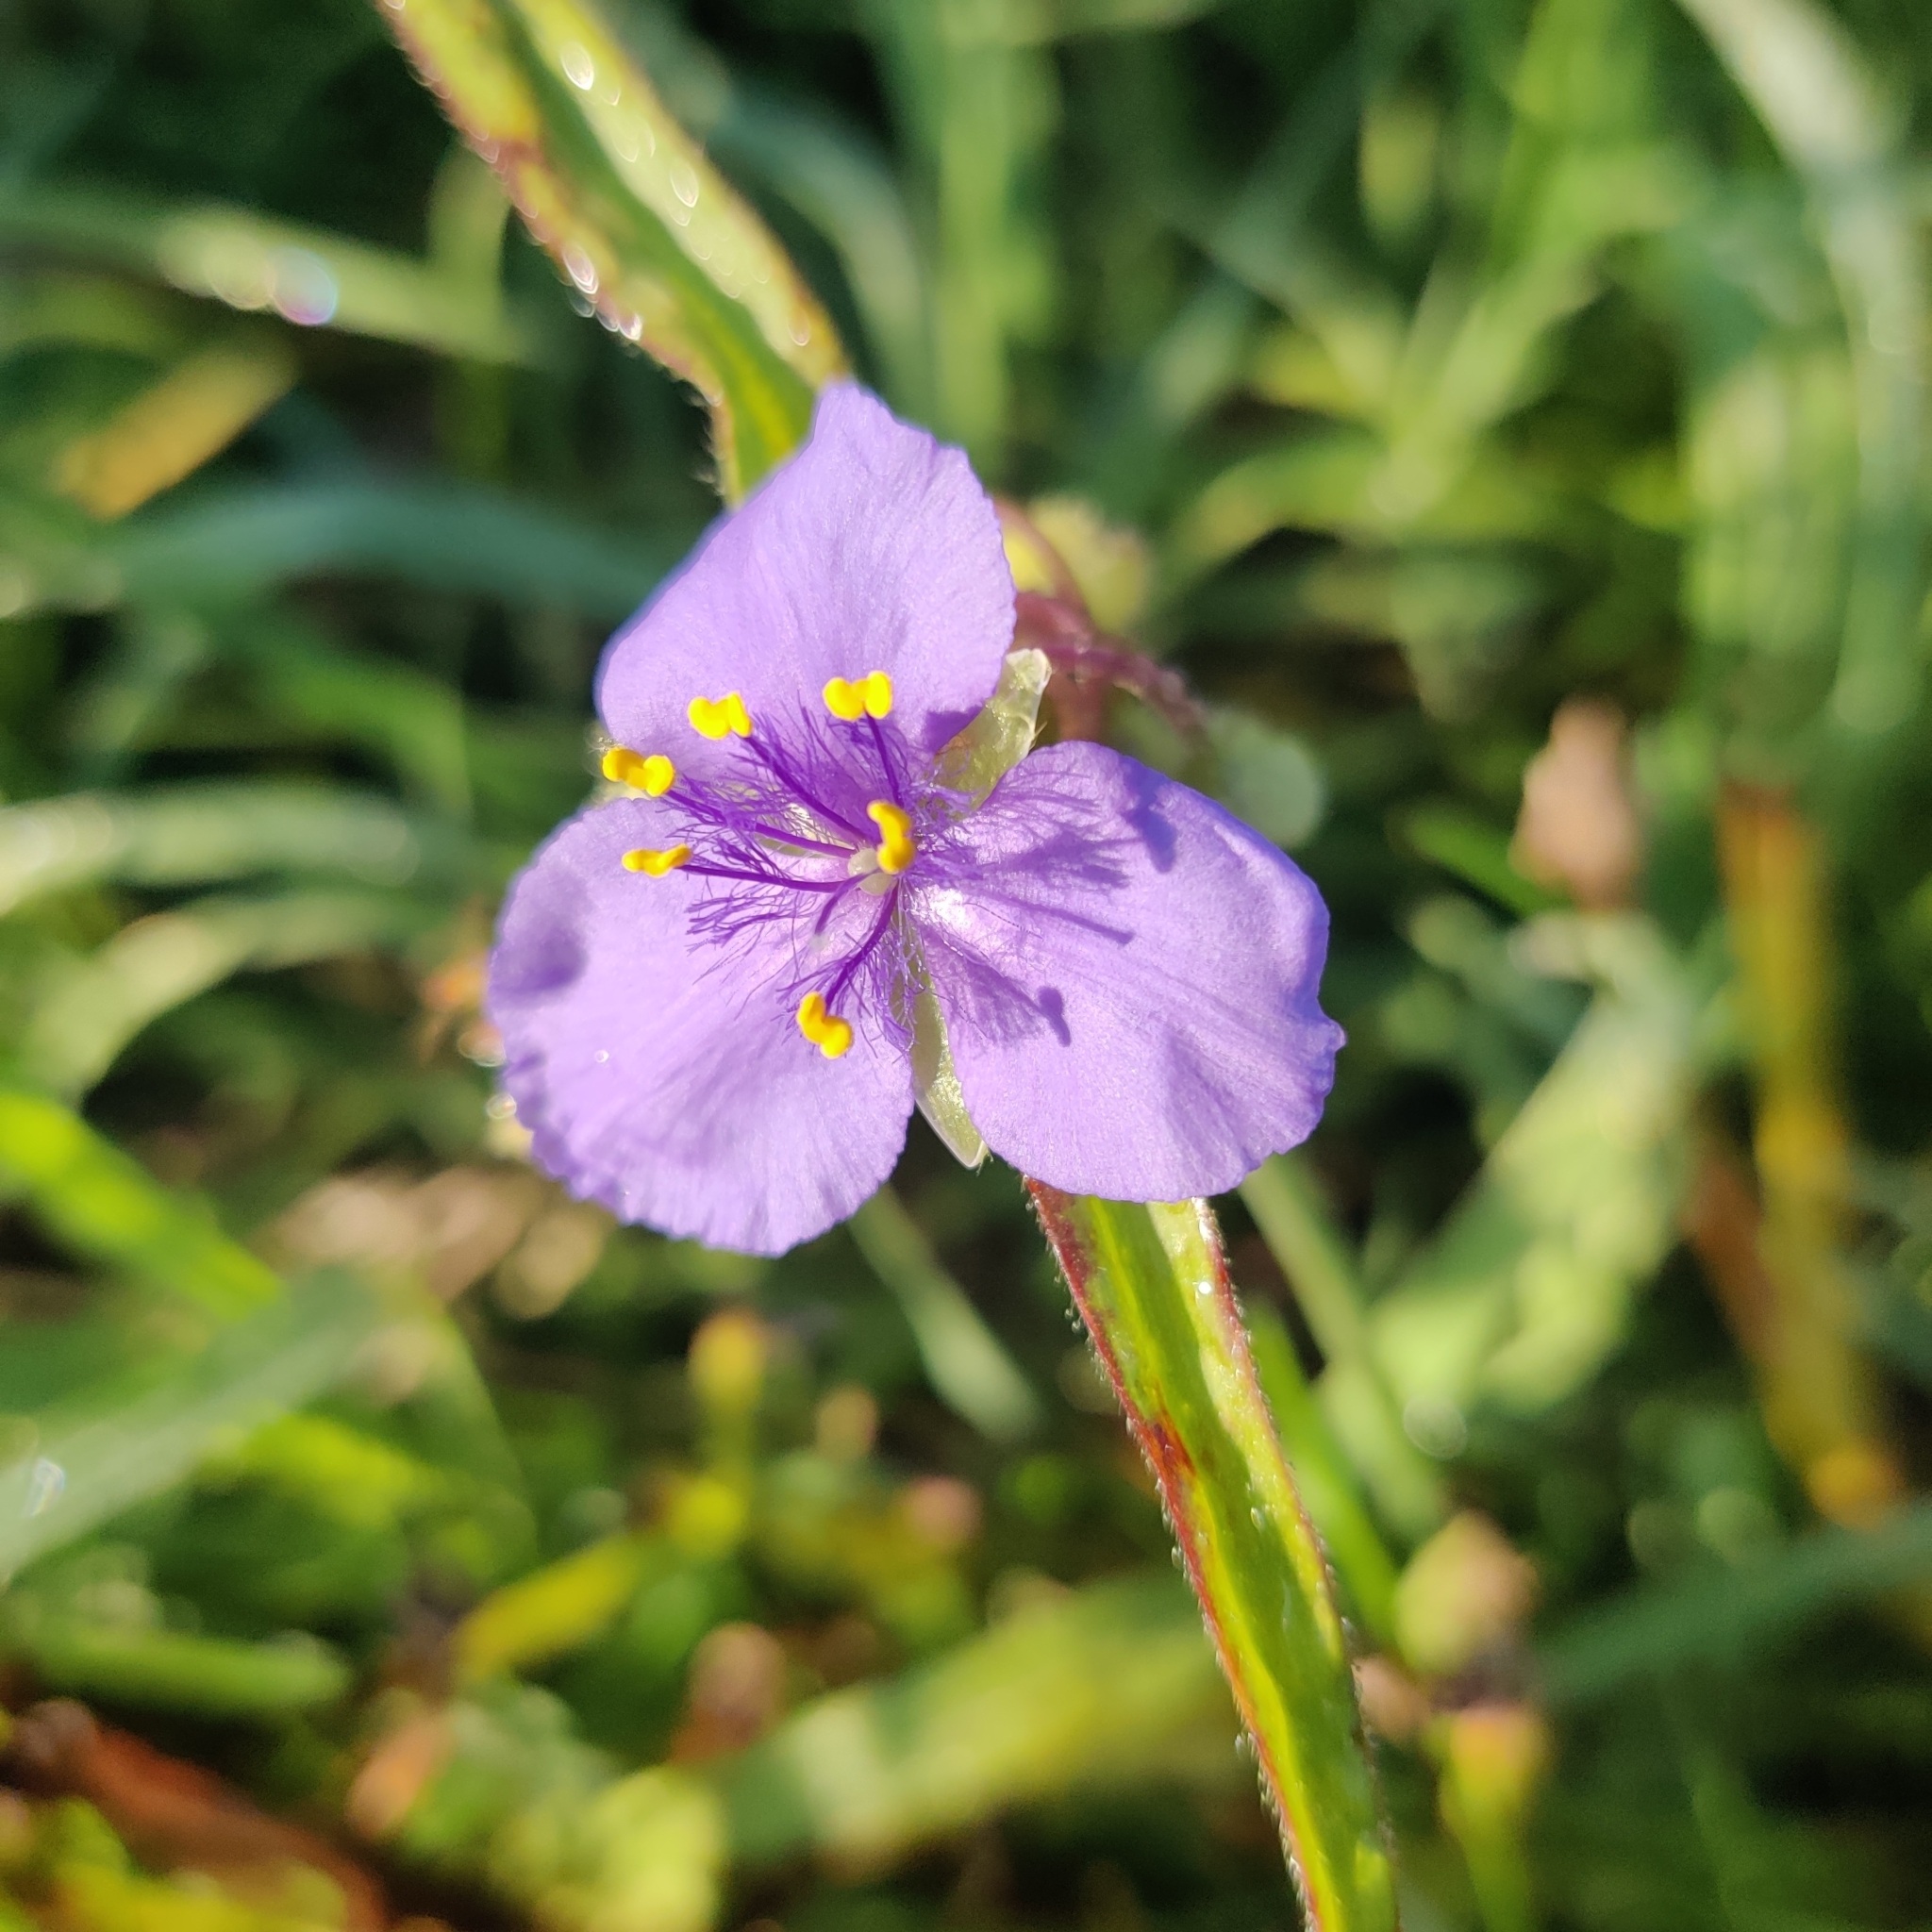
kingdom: Plantae
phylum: Tracheophyta
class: Liliopsida
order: Commelinales
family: Commelinaceae
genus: Tradescantia
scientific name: Tradescantia ohiensis
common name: Ohio spiderwort
